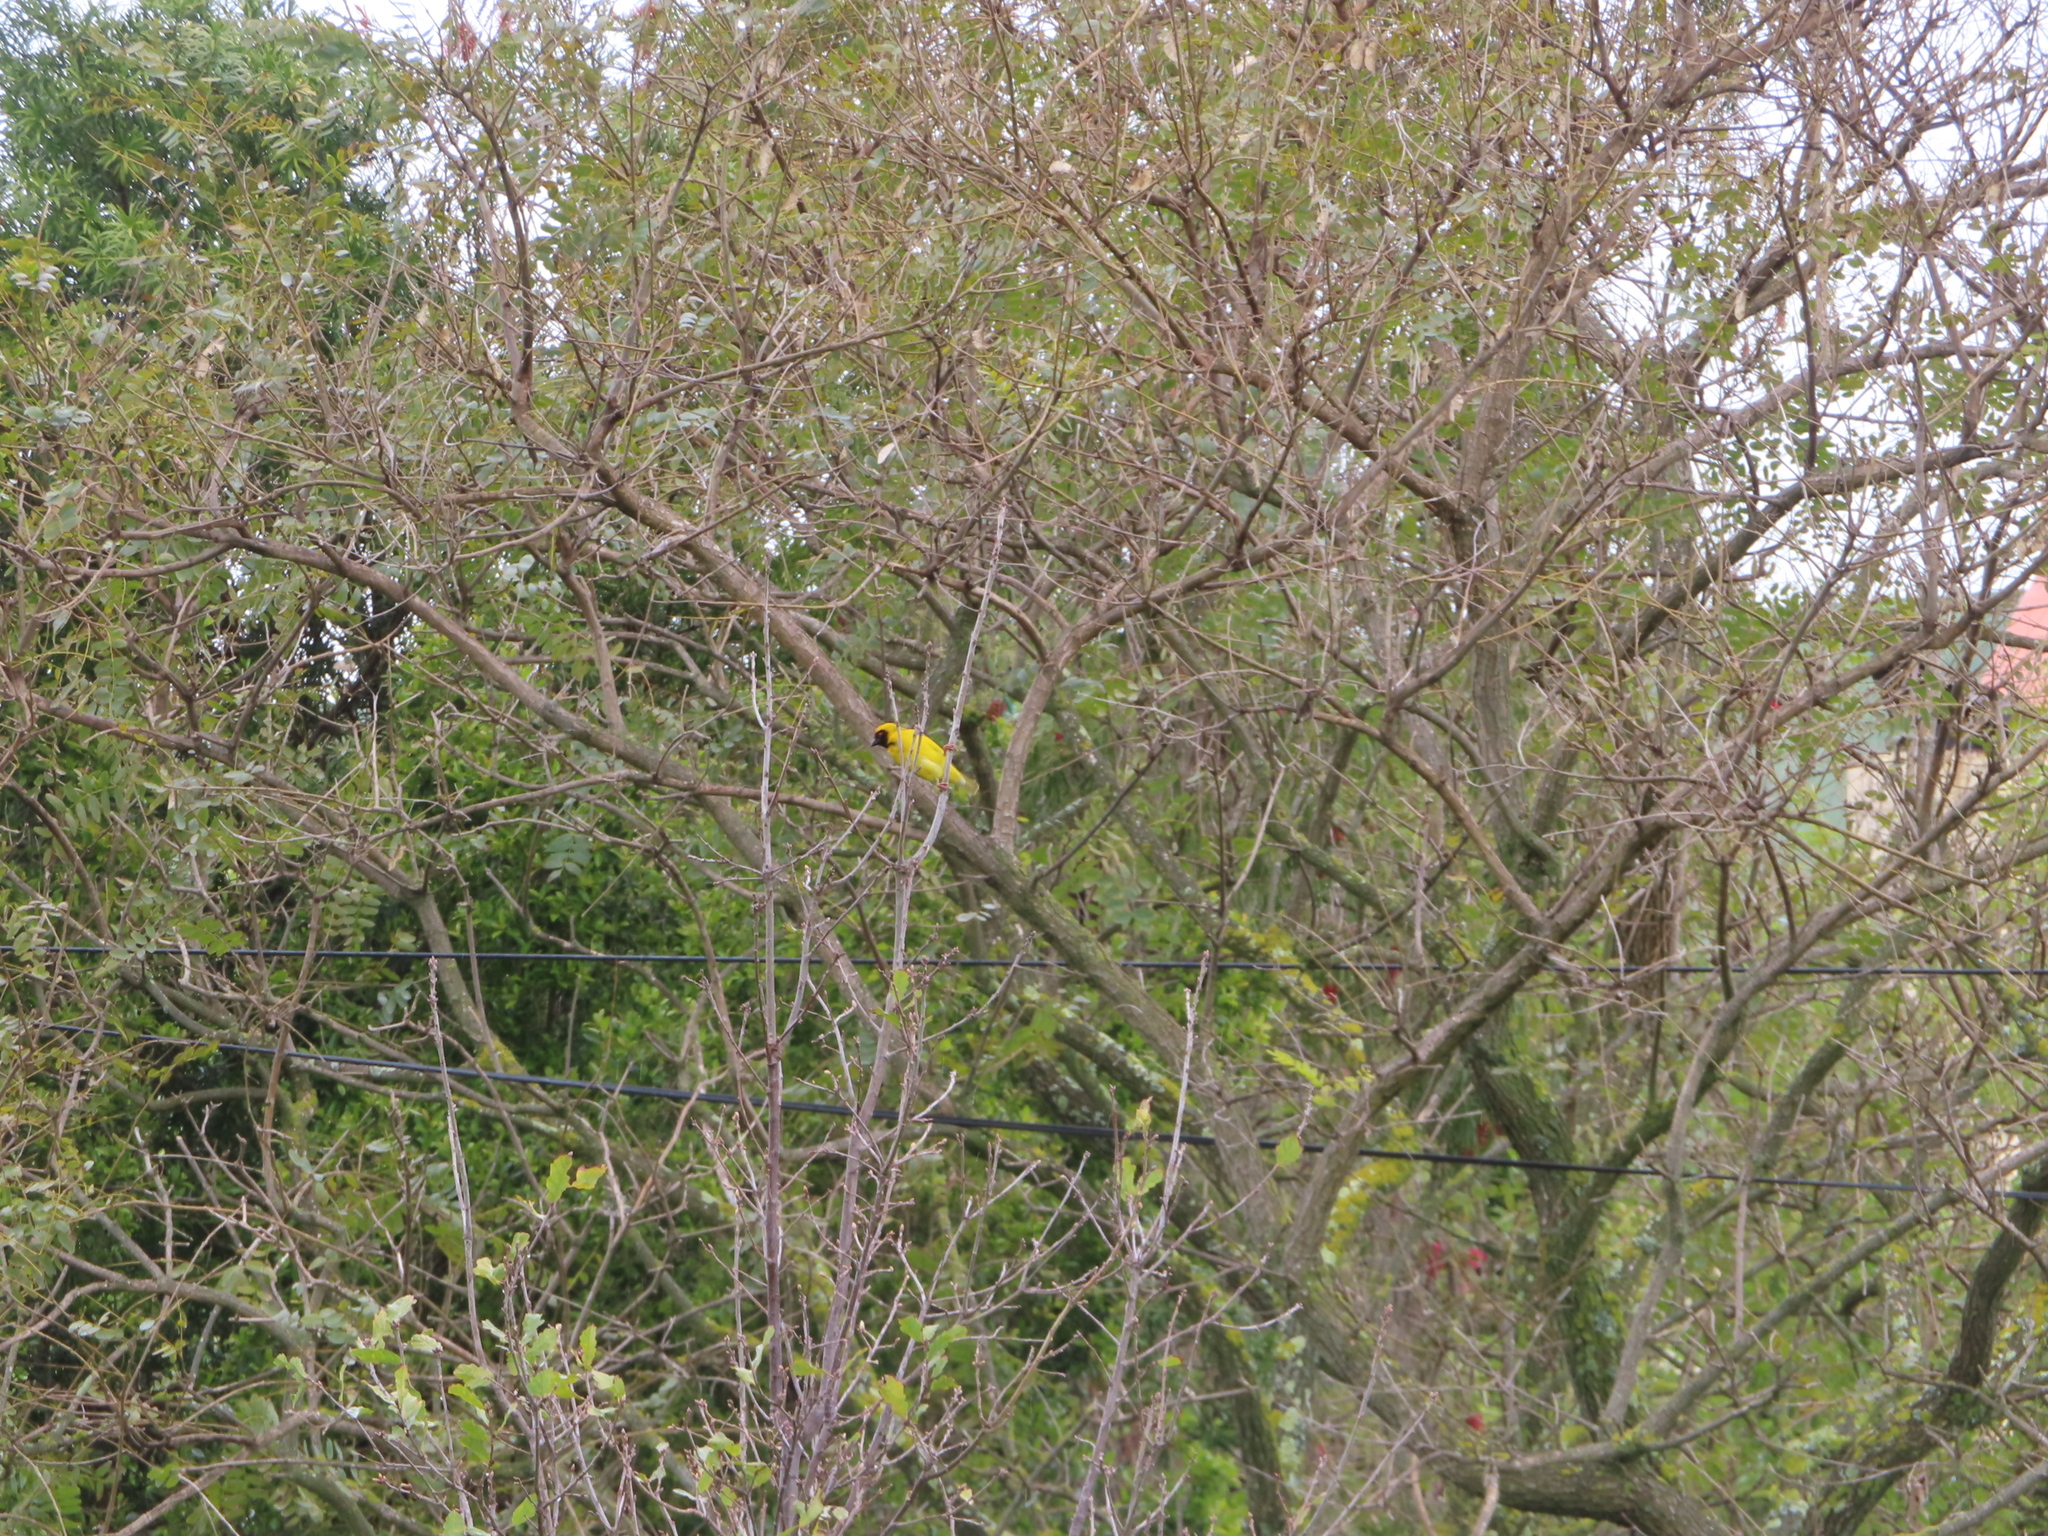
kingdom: Animalia
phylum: Chordata
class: Aves
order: Passeriformes
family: Ploceidae
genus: Ploceus
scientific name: Ploceus velatus
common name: Southern masked weaver
